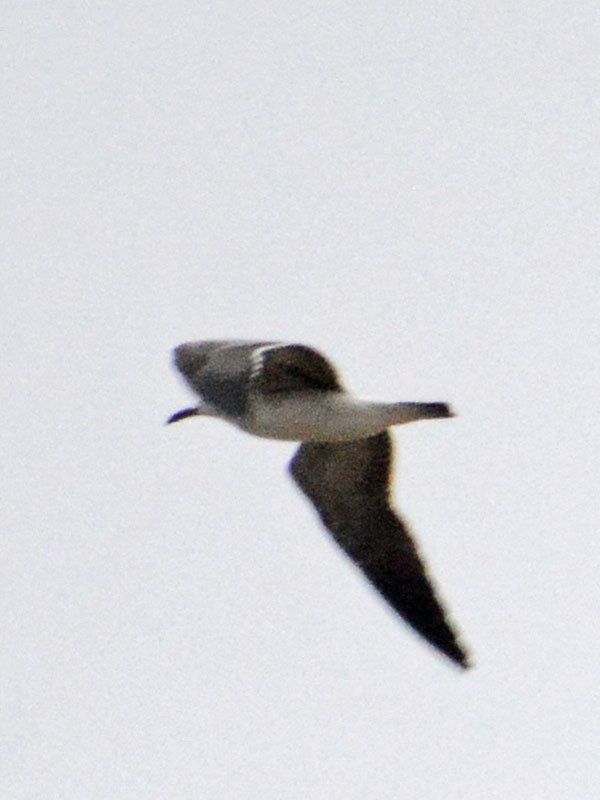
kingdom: Animalia
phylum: Chordata
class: Aves
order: Charadriiformes
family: Laridae
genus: Leucophaeus
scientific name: Leucophaeus atricilla
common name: Laughing gull
